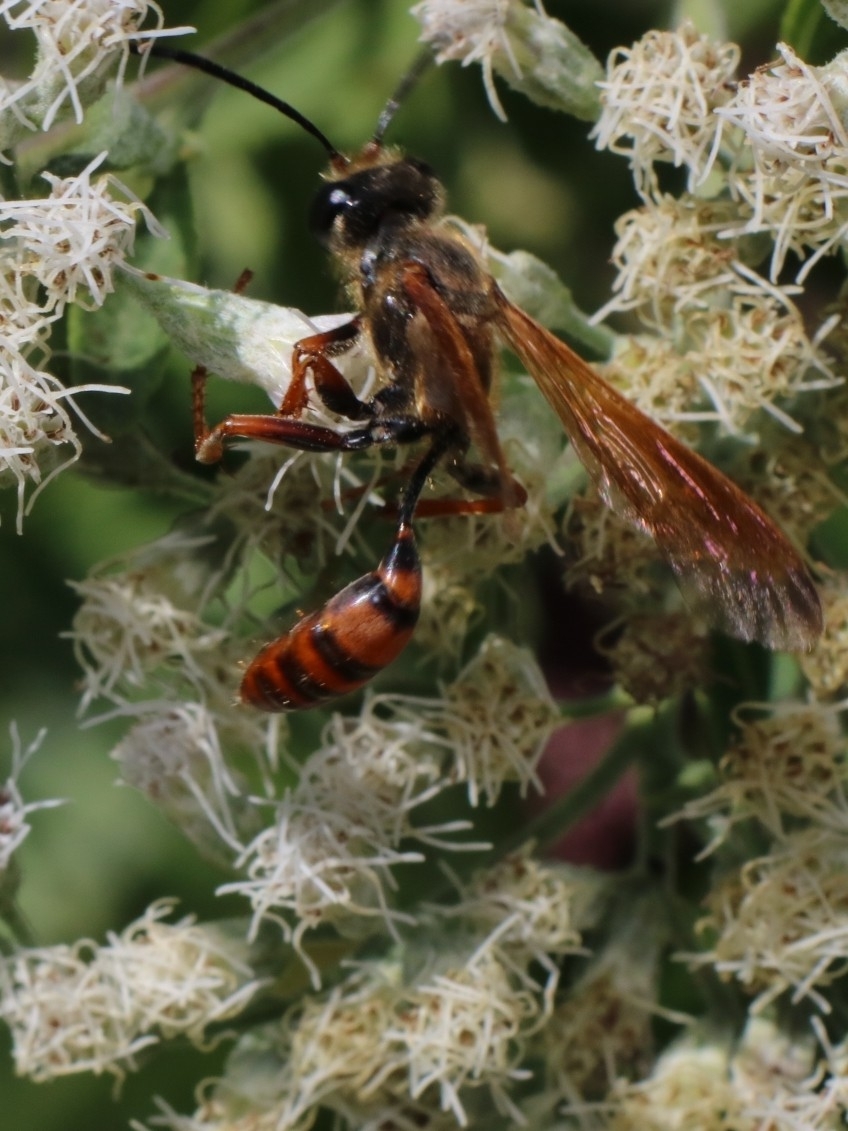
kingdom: Animalia
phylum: Arthropoda
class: Insecta
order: Hymenoptera
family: Sphecidae
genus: Isodontia
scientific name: Isodontia elegans
